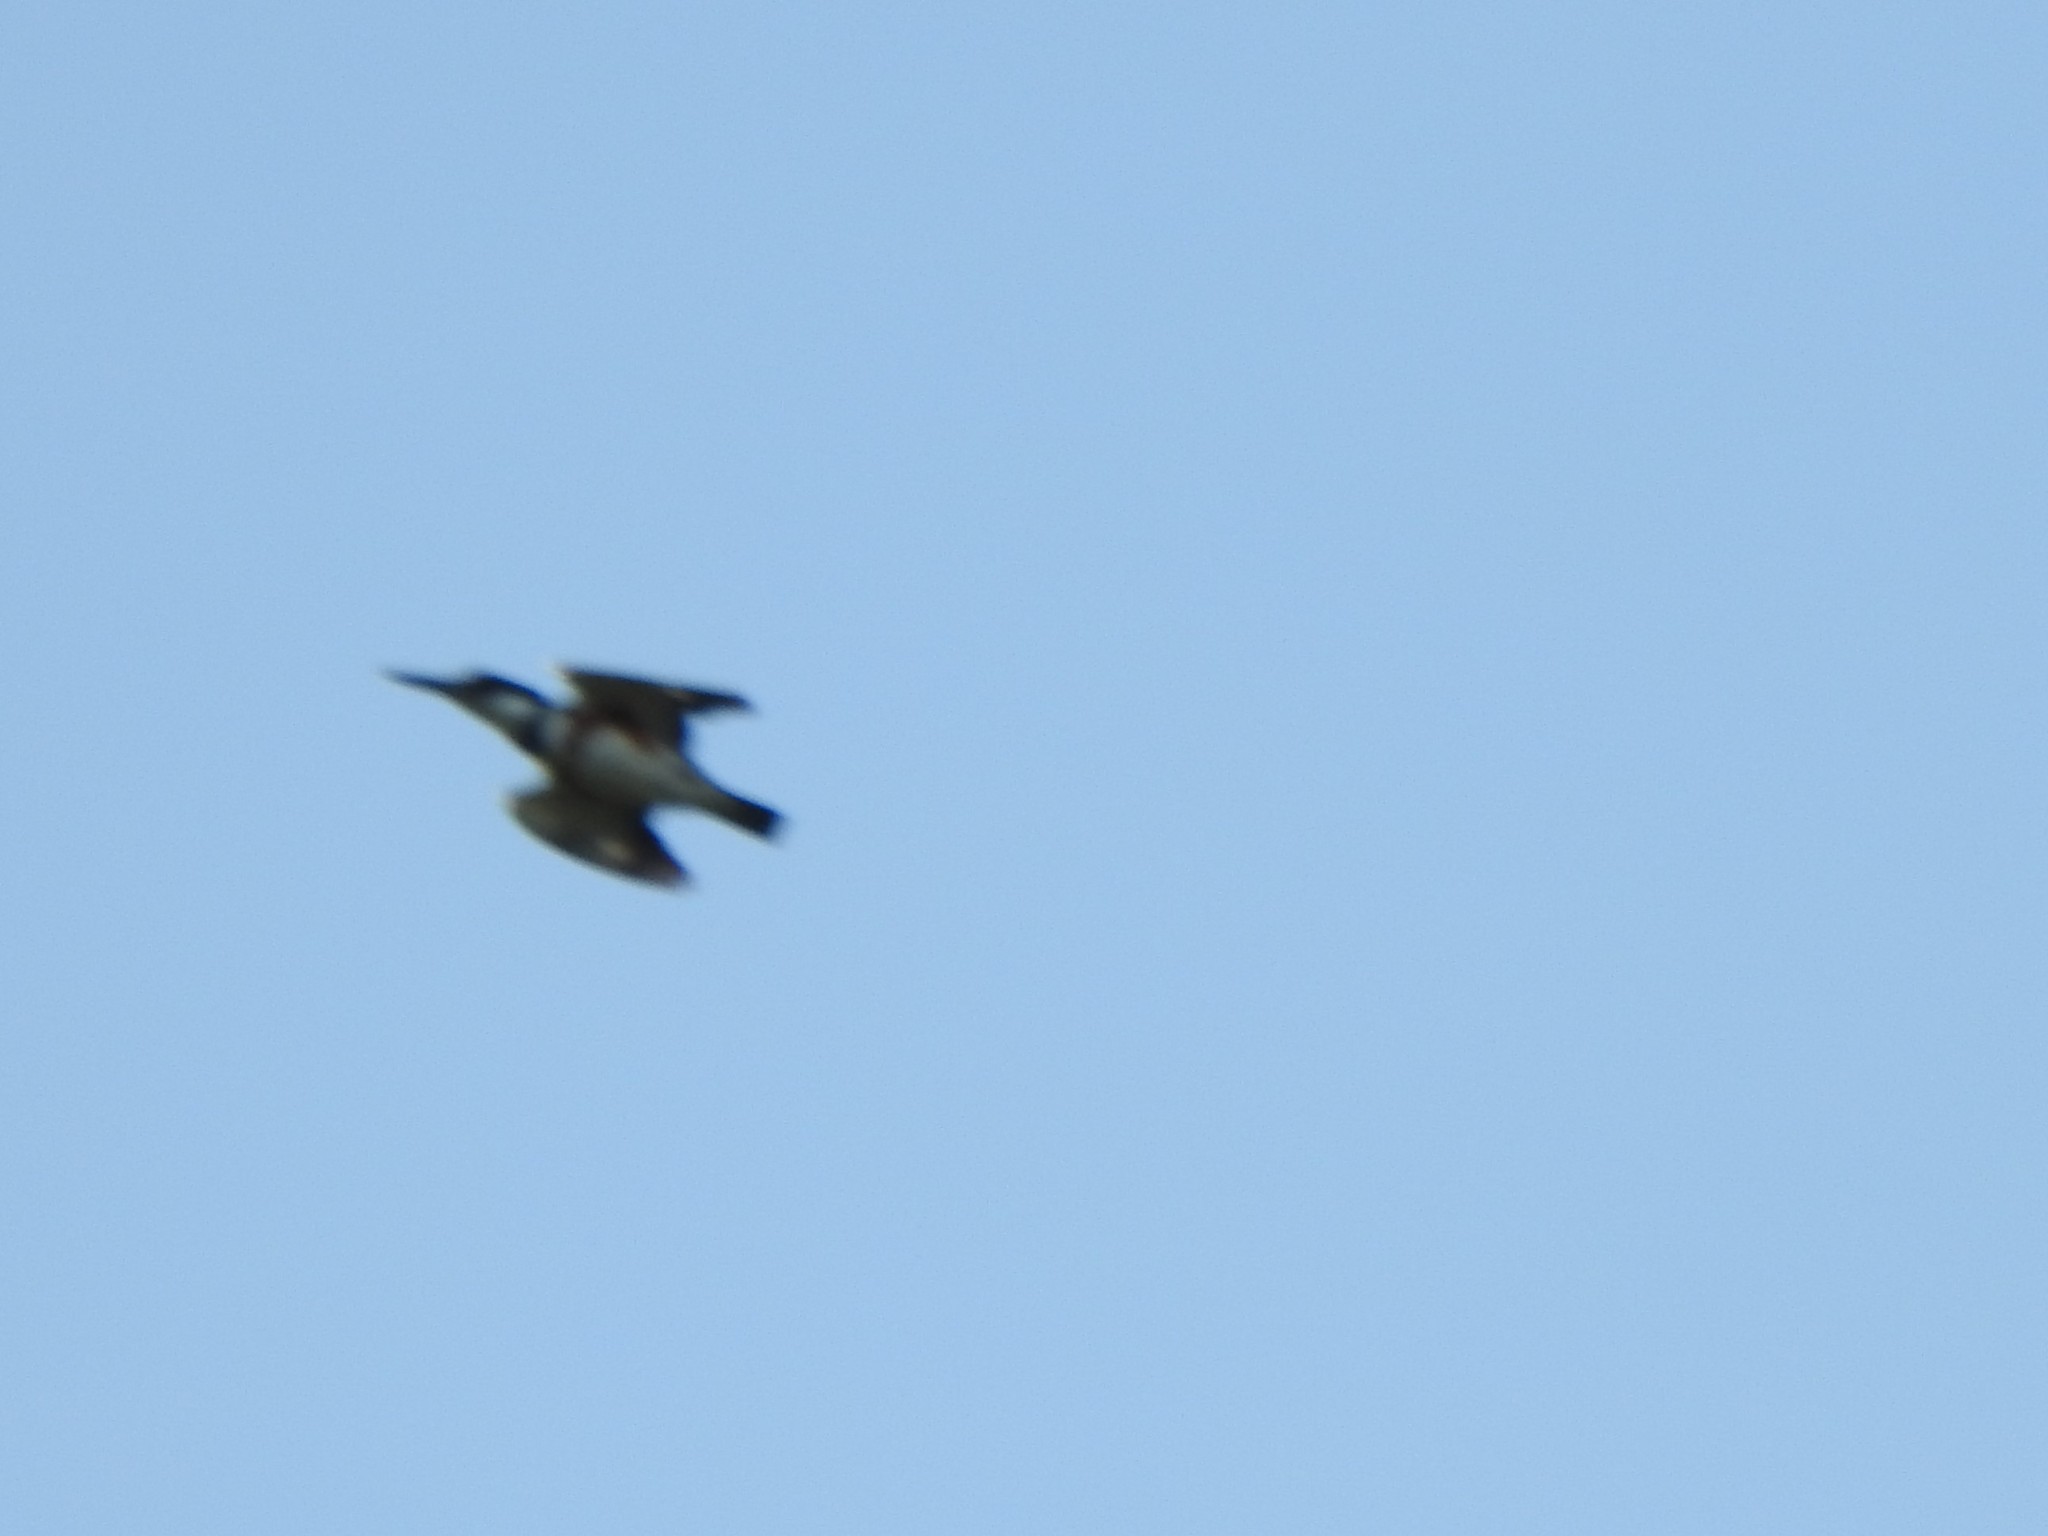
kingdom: Animalia
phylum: Chordata
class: Aves
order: Coraciiformes
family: Alcedinidae
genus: Megaceryle
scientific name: Megaceryle alcyon
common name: Belted kingfisher
